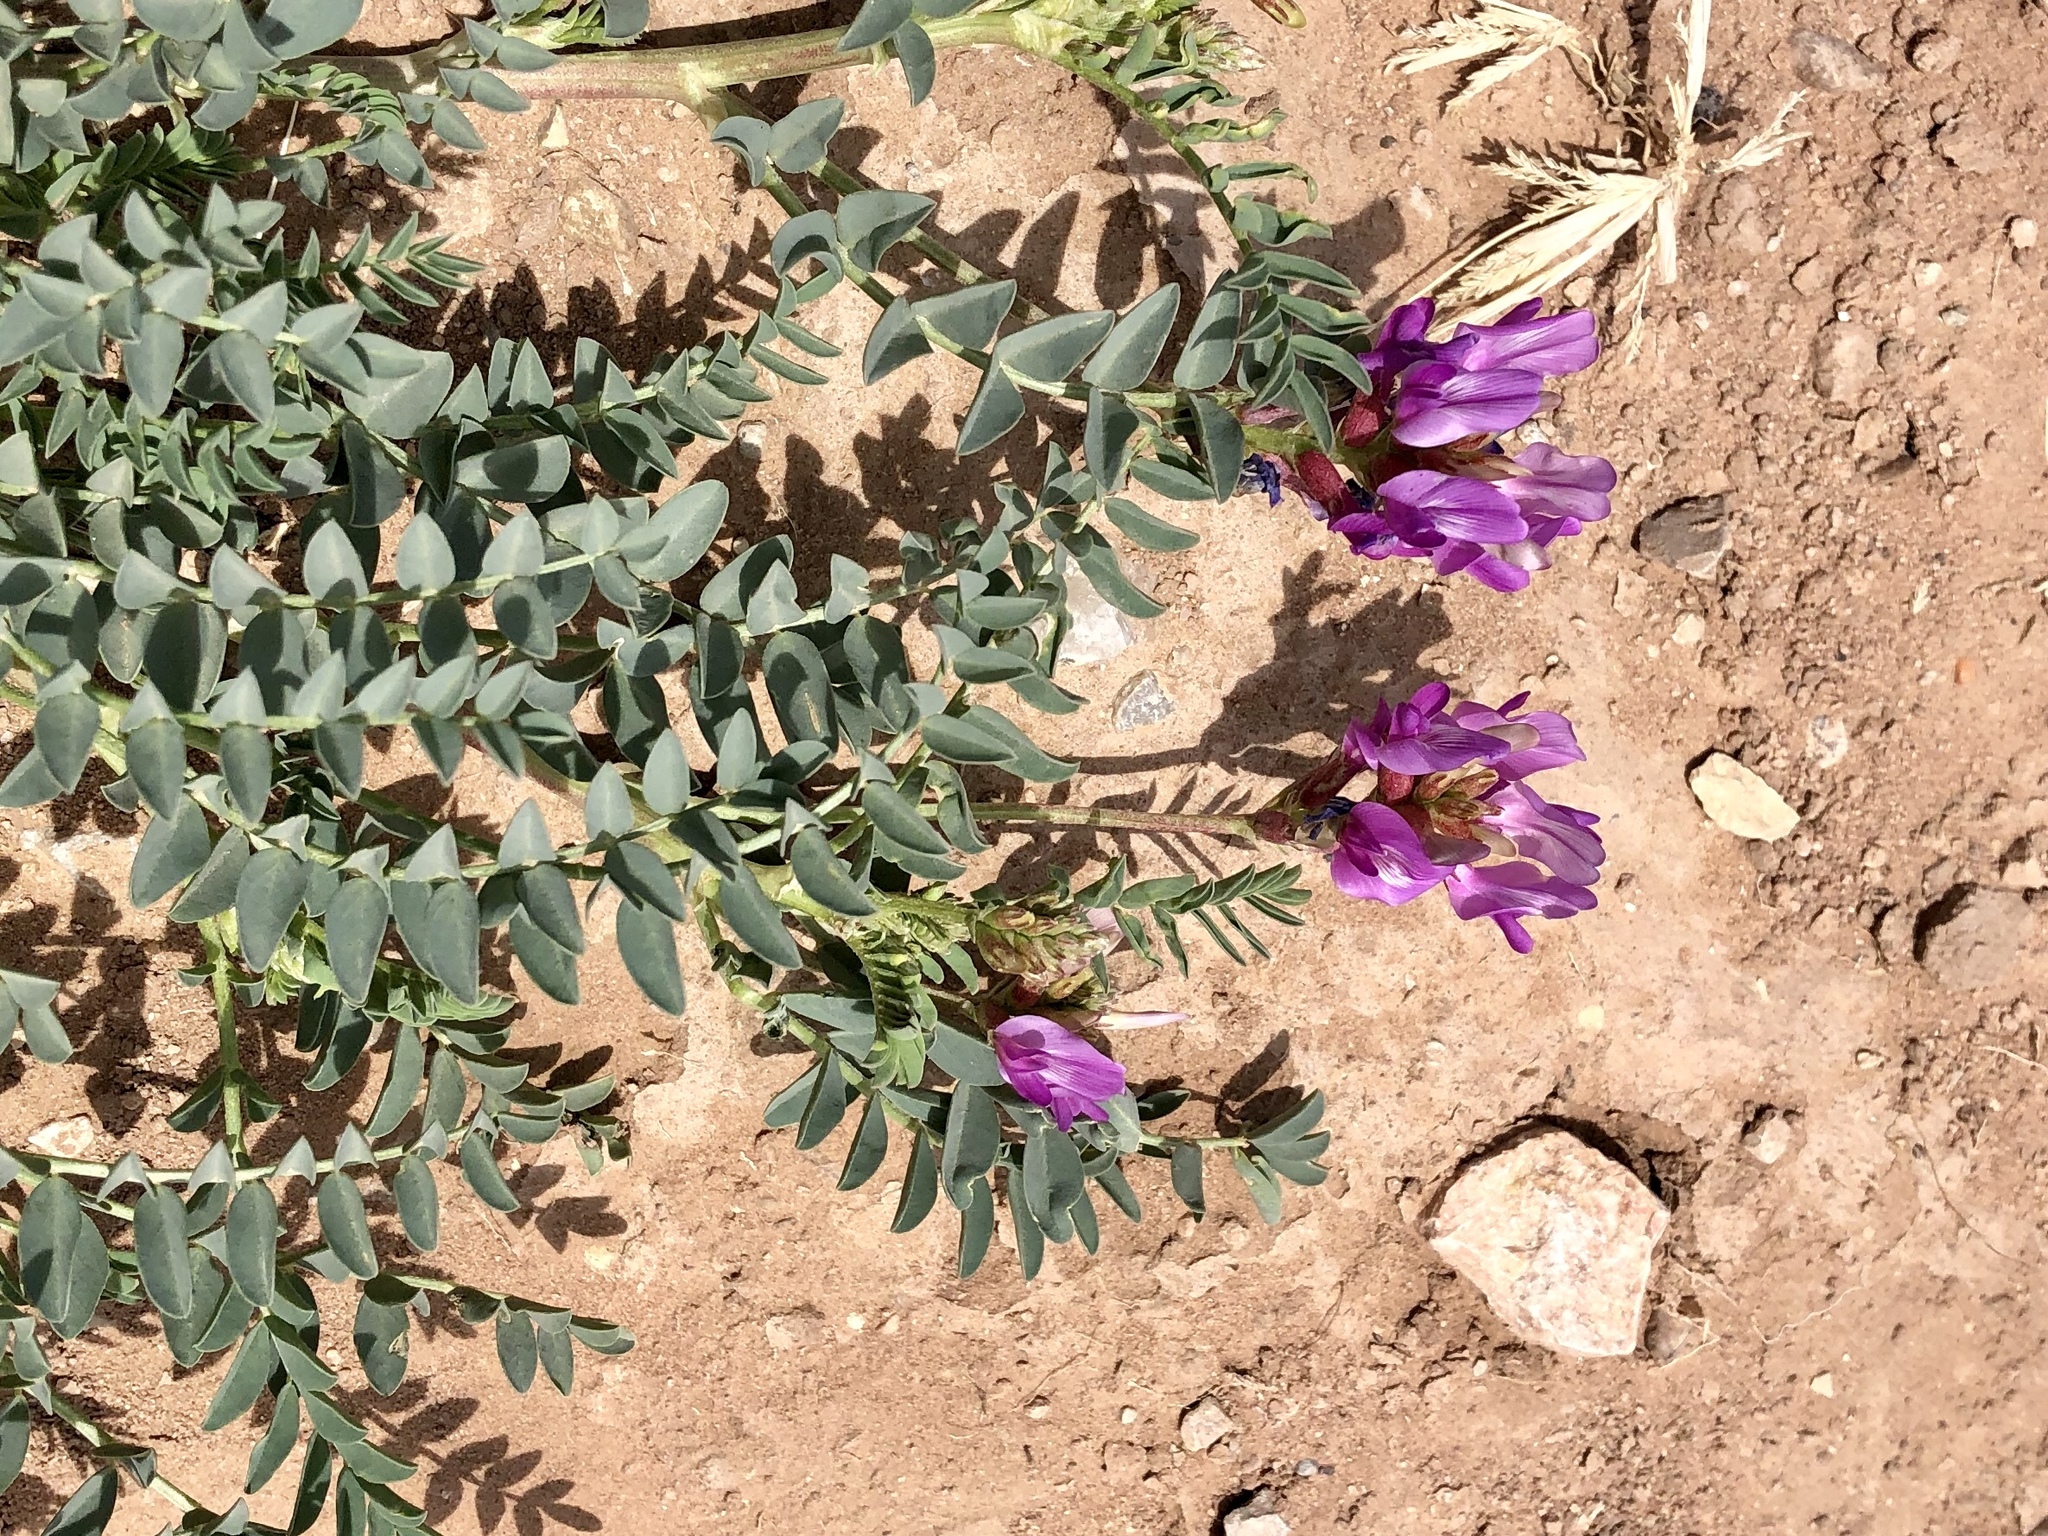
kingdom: Plantae
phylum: Tracheophyta
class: Magnoliopsida
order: Fabales
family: Fabaceae
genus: Astragalus
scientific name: Astragalus lentiginosus
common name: Freckled milkvetch
